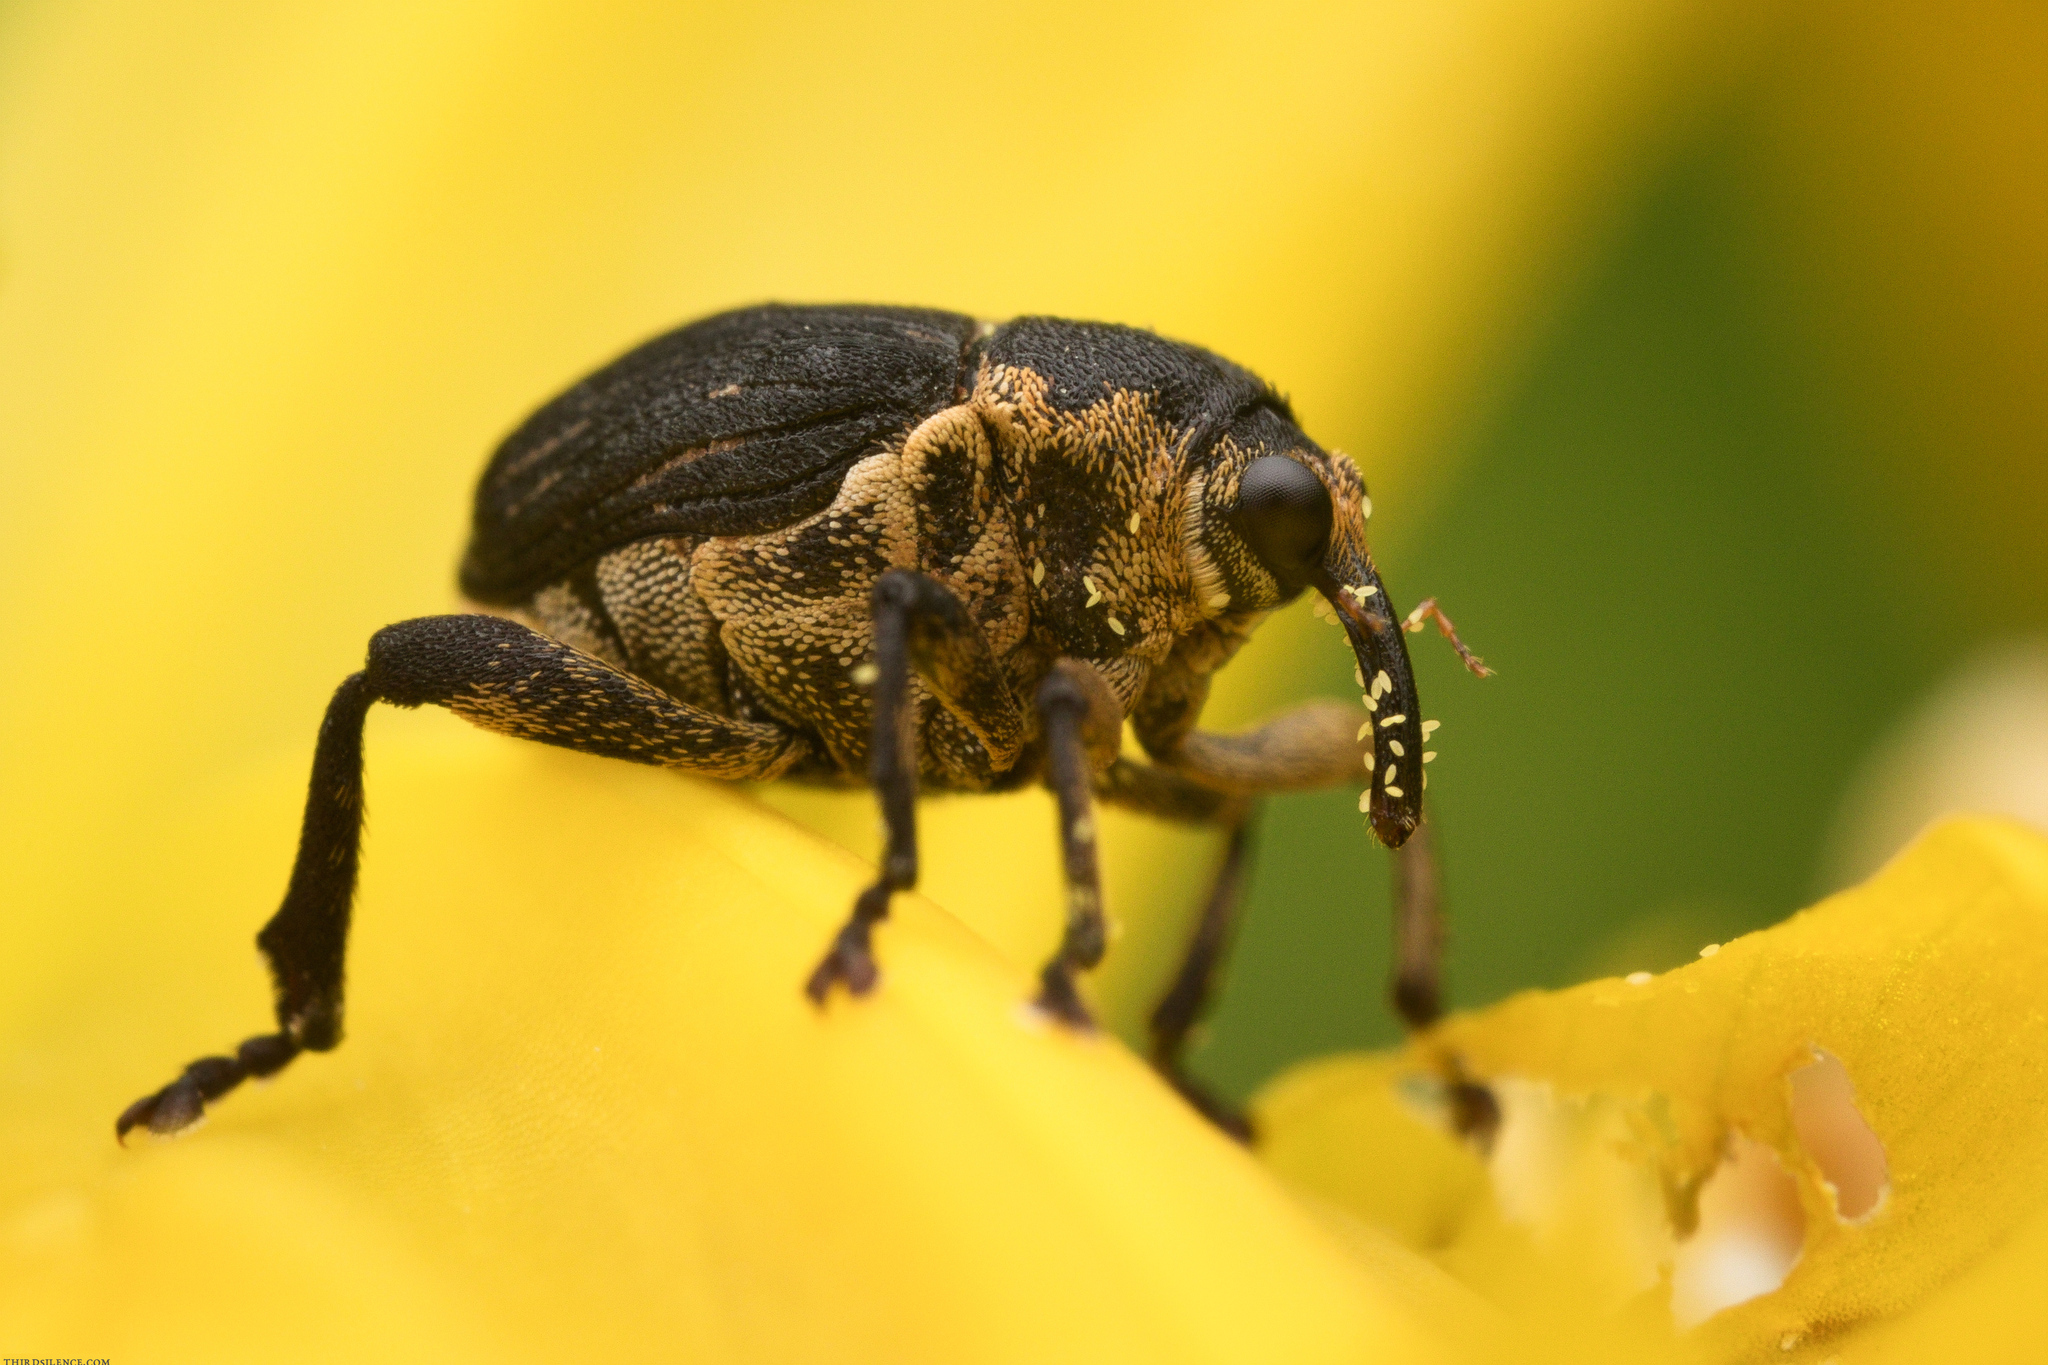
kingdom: Animalia
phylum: Arthropoda
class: Insecta
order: Coleoptera
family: Curculionidae
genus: Mononychus
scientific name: Mononychus punctumalbum
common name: Iris weevil
